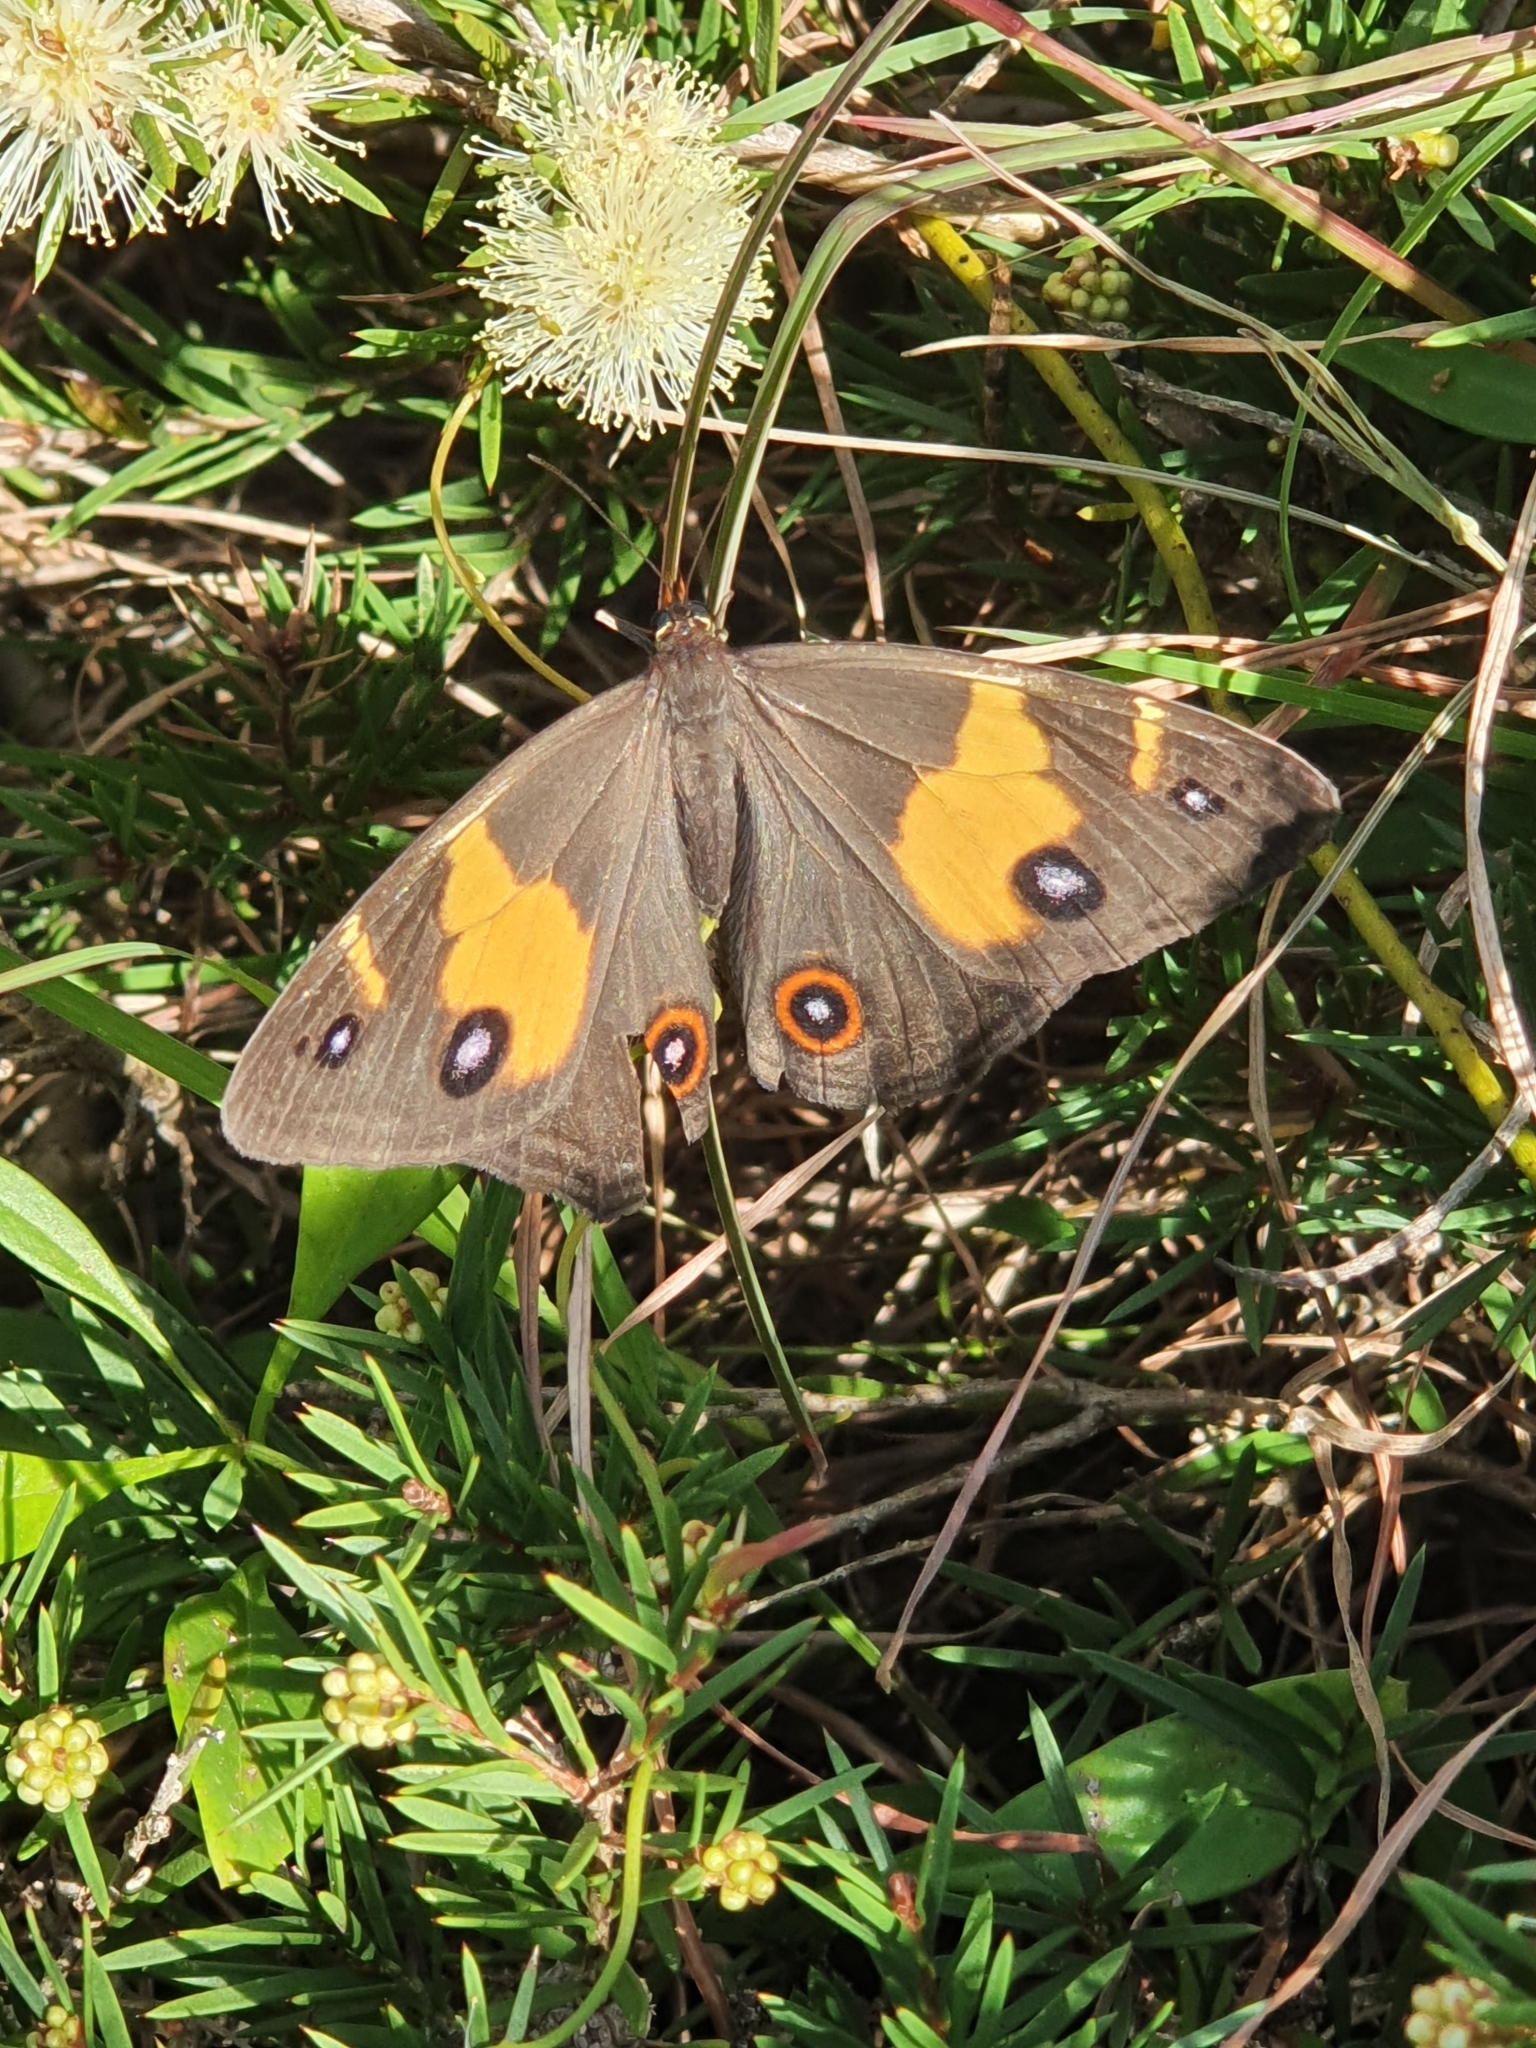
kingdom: Animalia
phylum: Arthropoda
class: Insecta
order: Lepidoptera
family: Nymphalidae
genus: Tisiphone
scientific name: Tisiphone abeona
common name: Swordgrass brown
